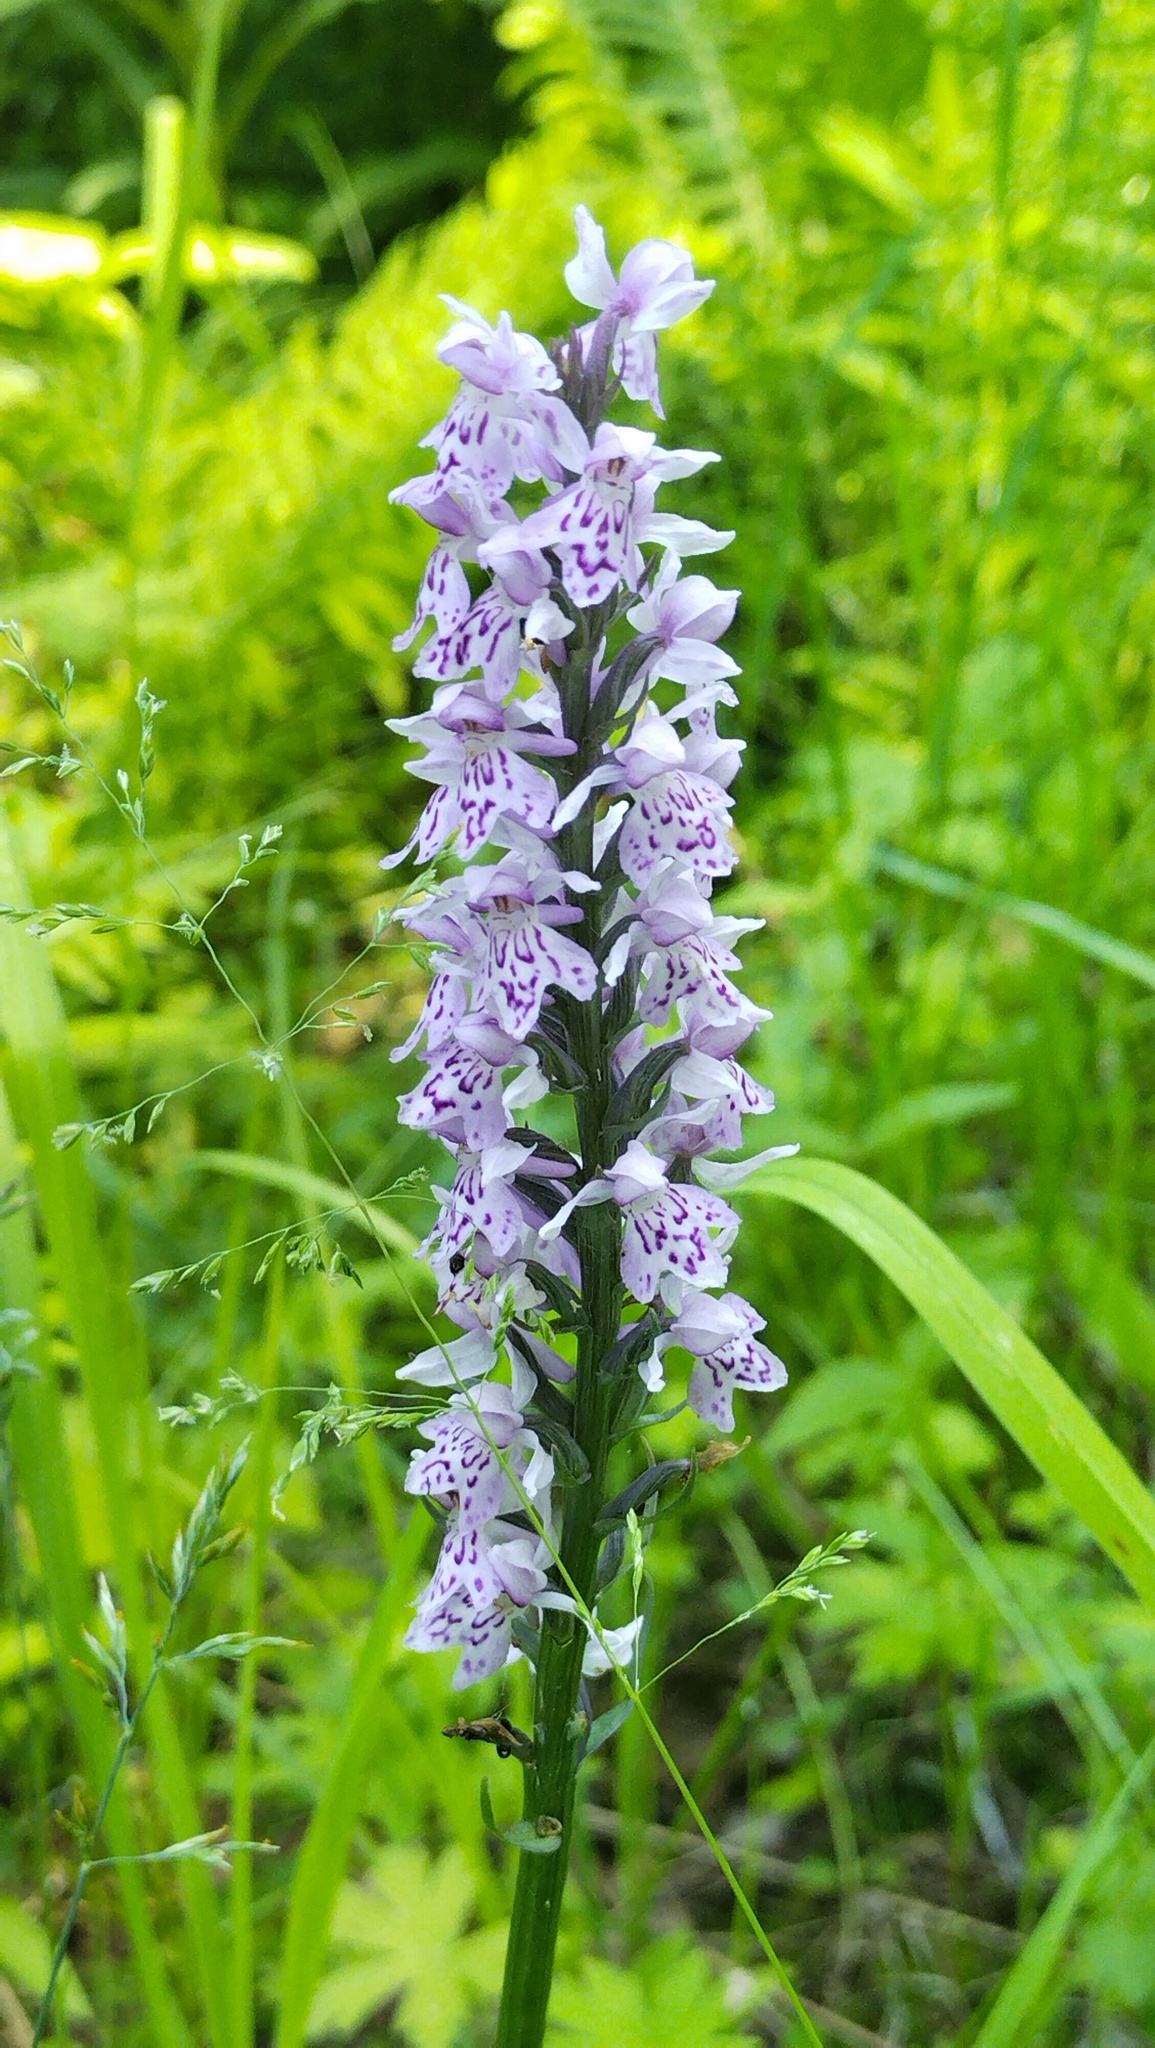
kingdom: Plantae
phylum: Tracheophyta
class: Liliopsida
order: Asparagales
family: Orchidaceae
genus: Dactylorhiza
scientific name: Dactylorhiza maculata
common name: Heath spotted-orchid
